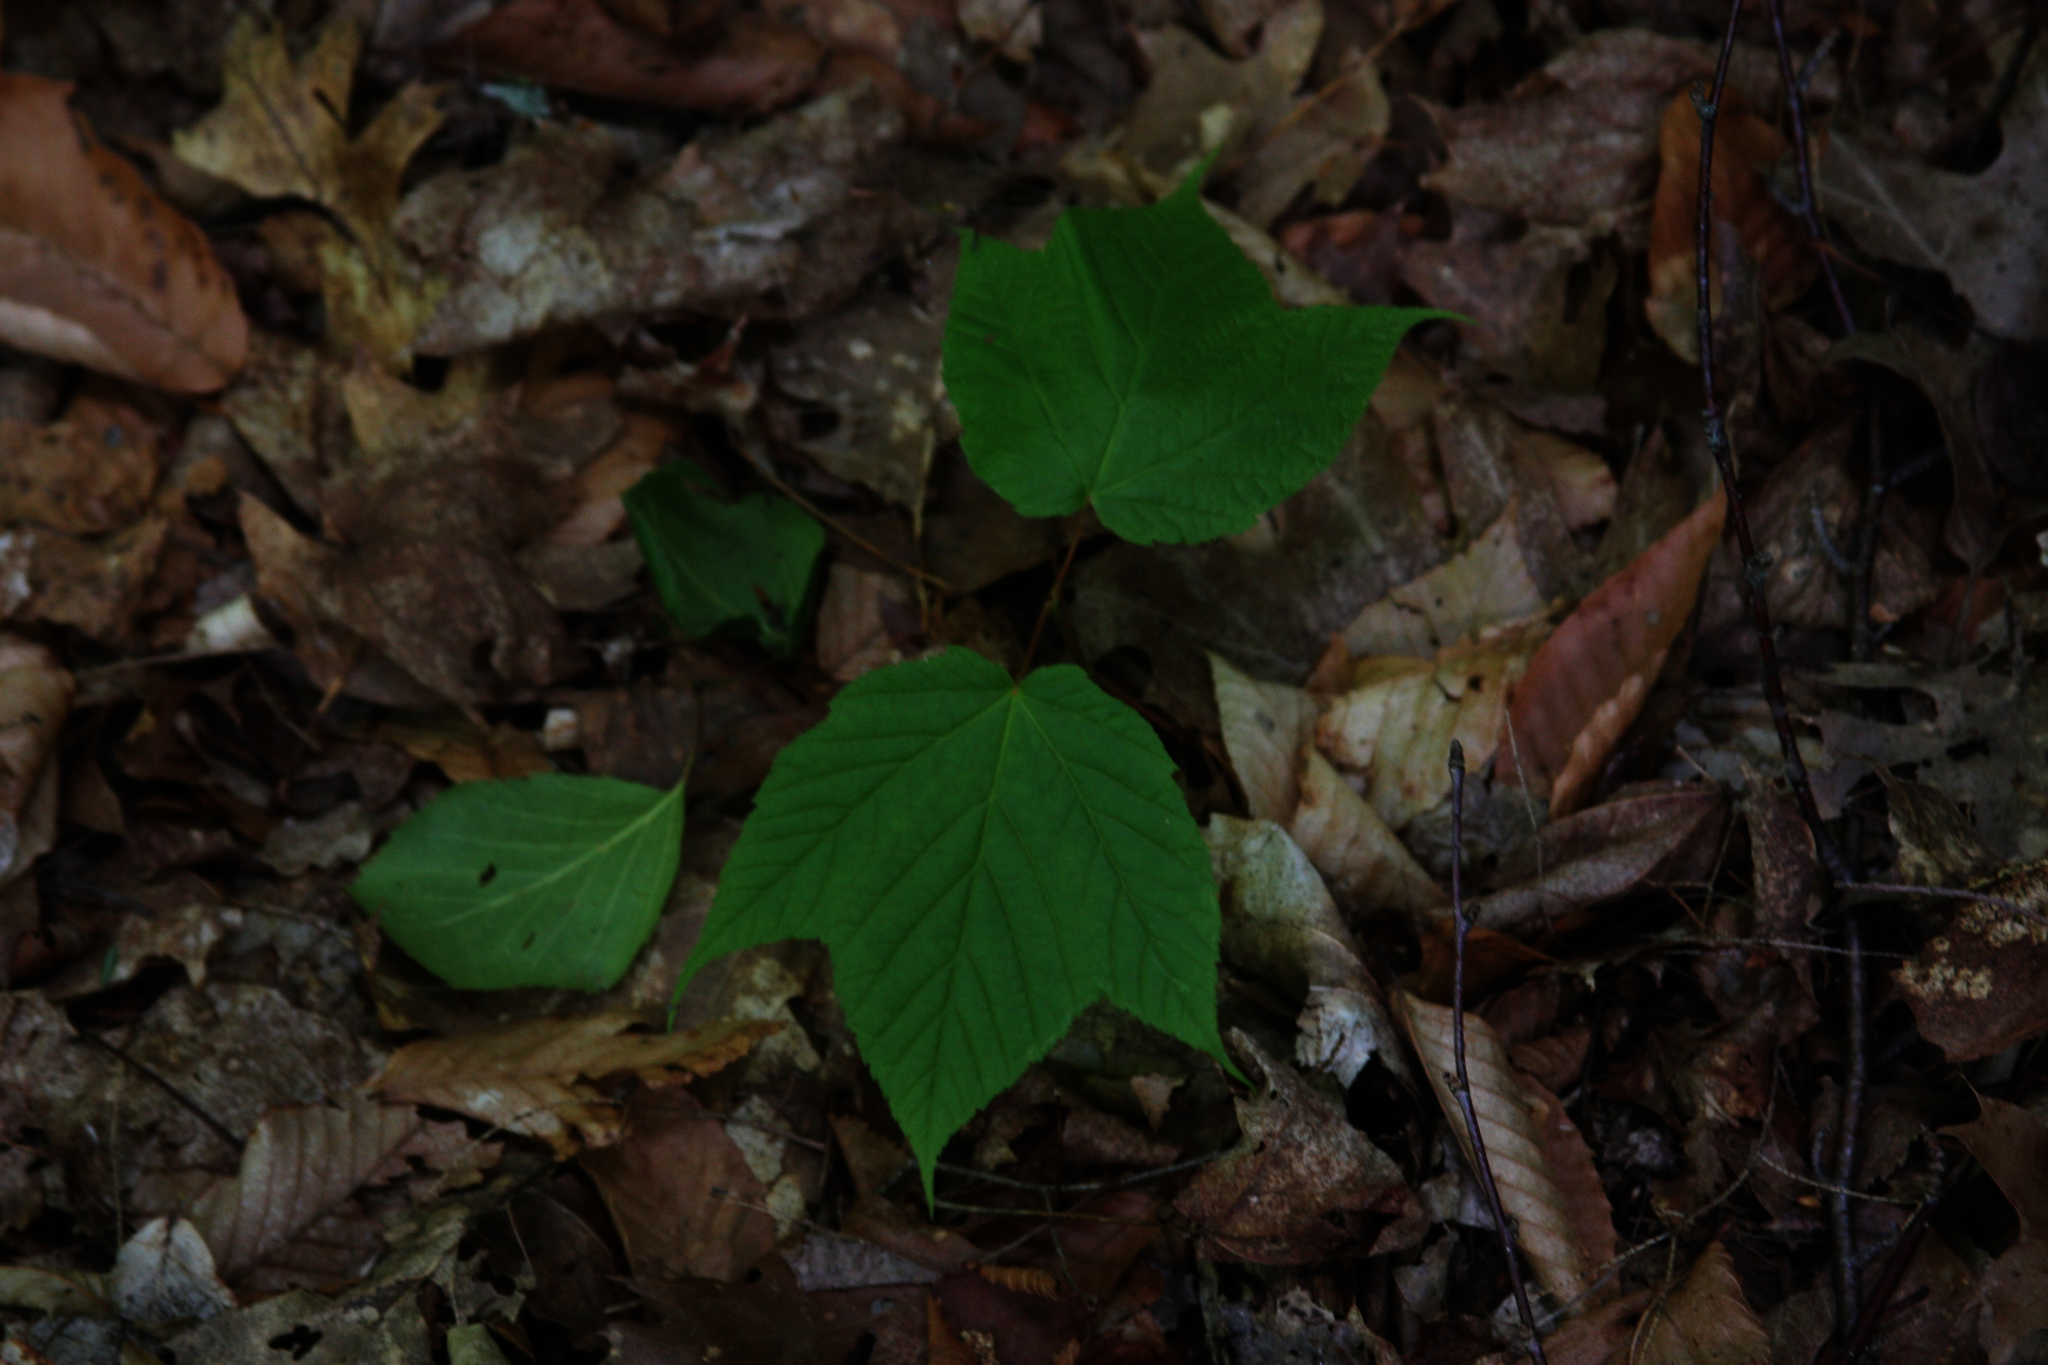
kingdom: Plantae
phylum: Tracheophyta
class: Magnoliopsida
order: Sapindales
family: Sapindaceae
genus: Acer
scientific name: Acer pensylvanicum
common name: Moosewood
